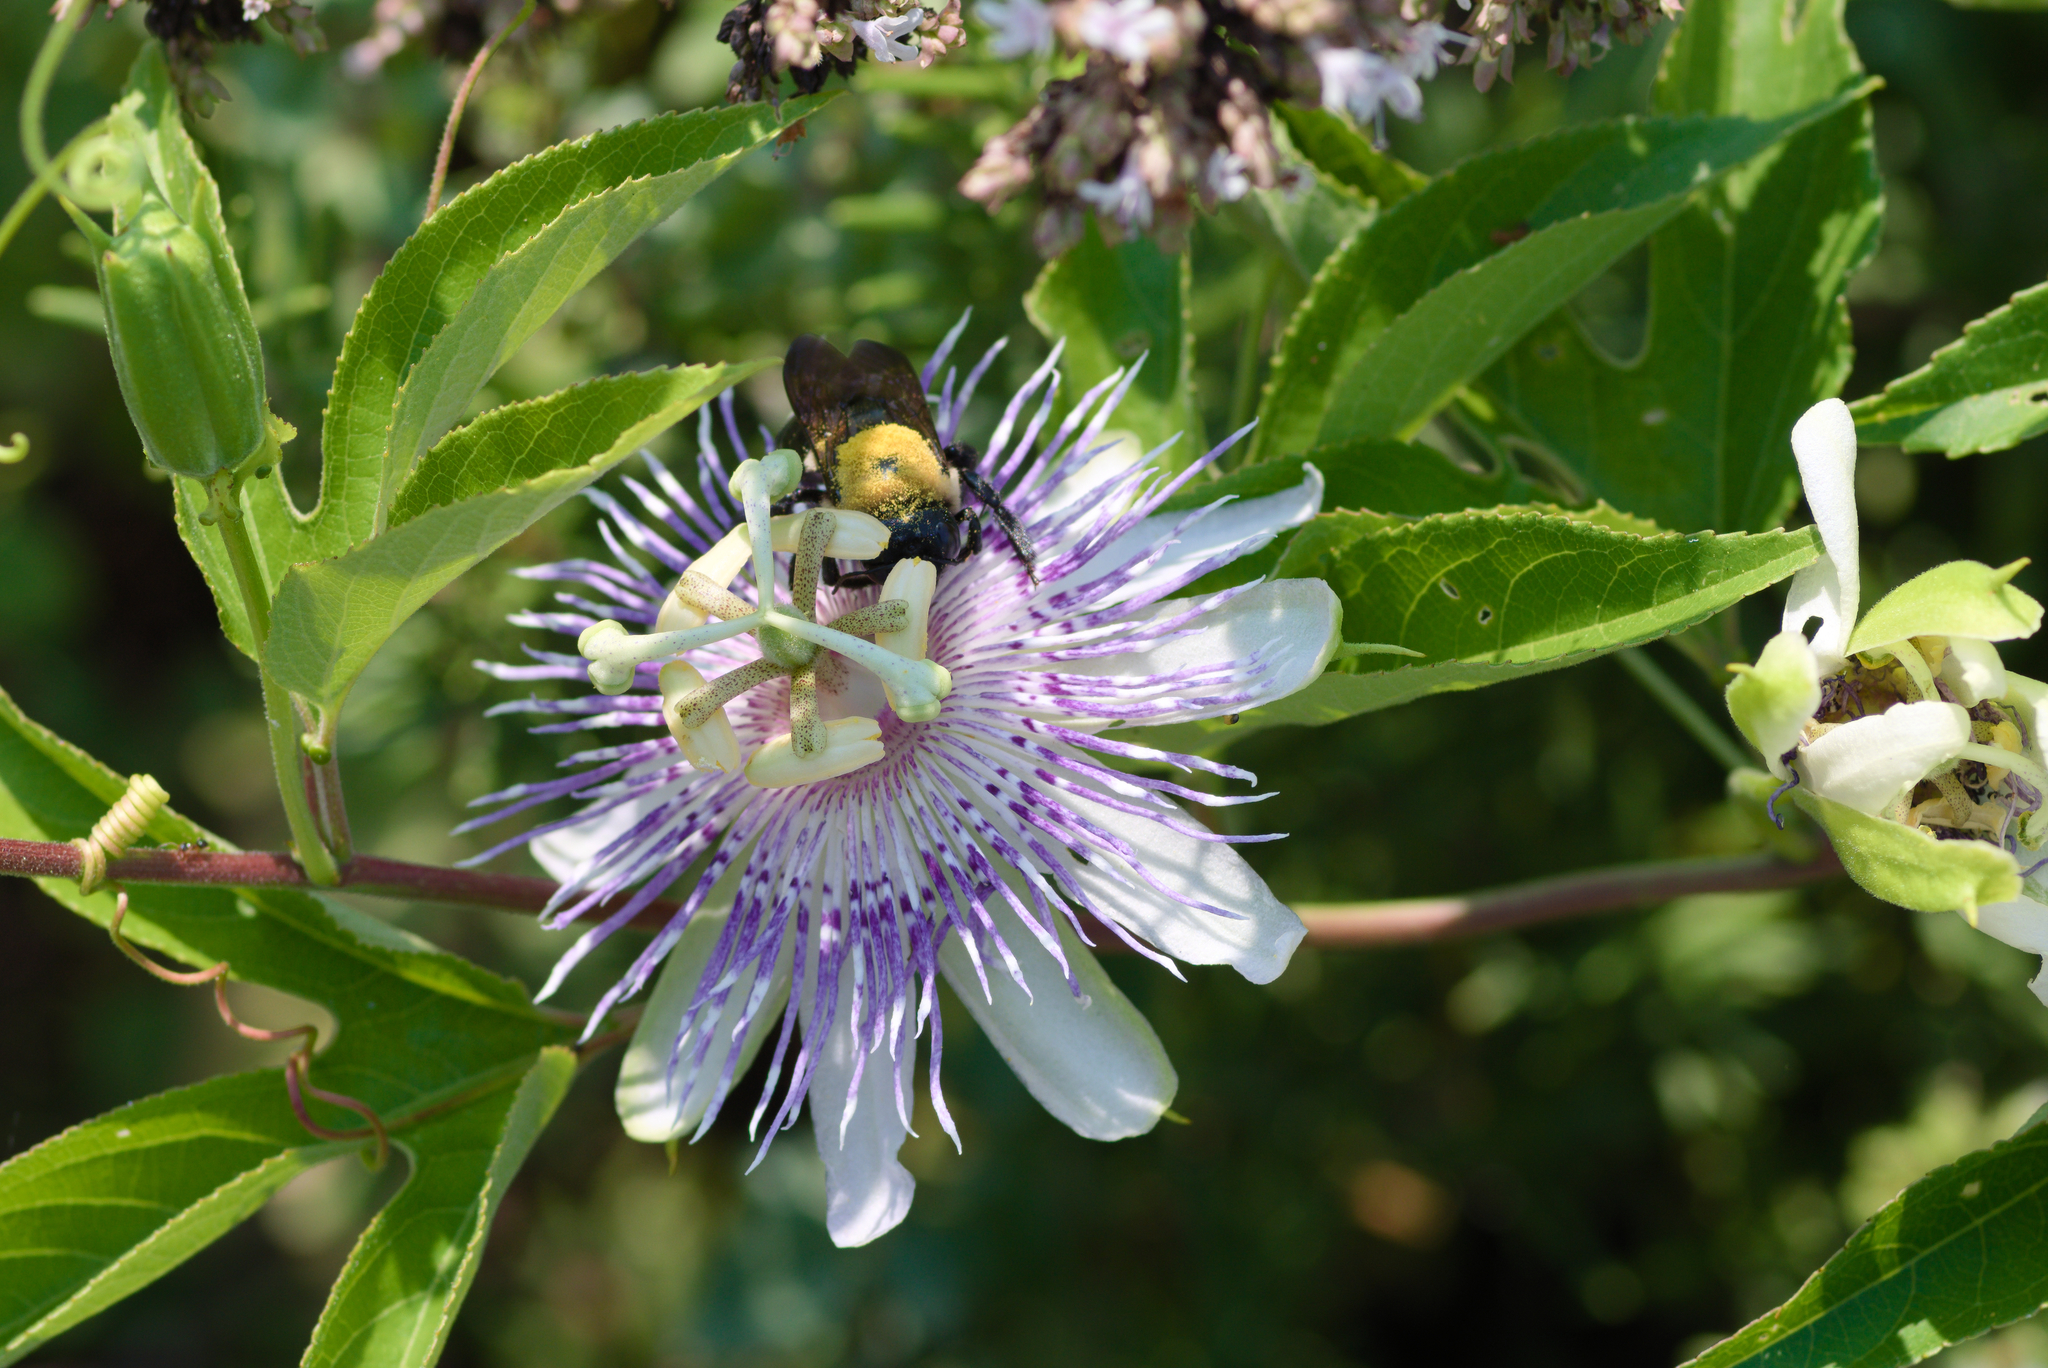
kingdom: Animalia
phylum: Arthropoda
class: Insecta
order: Hymenoptera
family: Apidae
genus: Xylocopa
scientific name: Xylocopa virginica
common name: Carpenter bee
